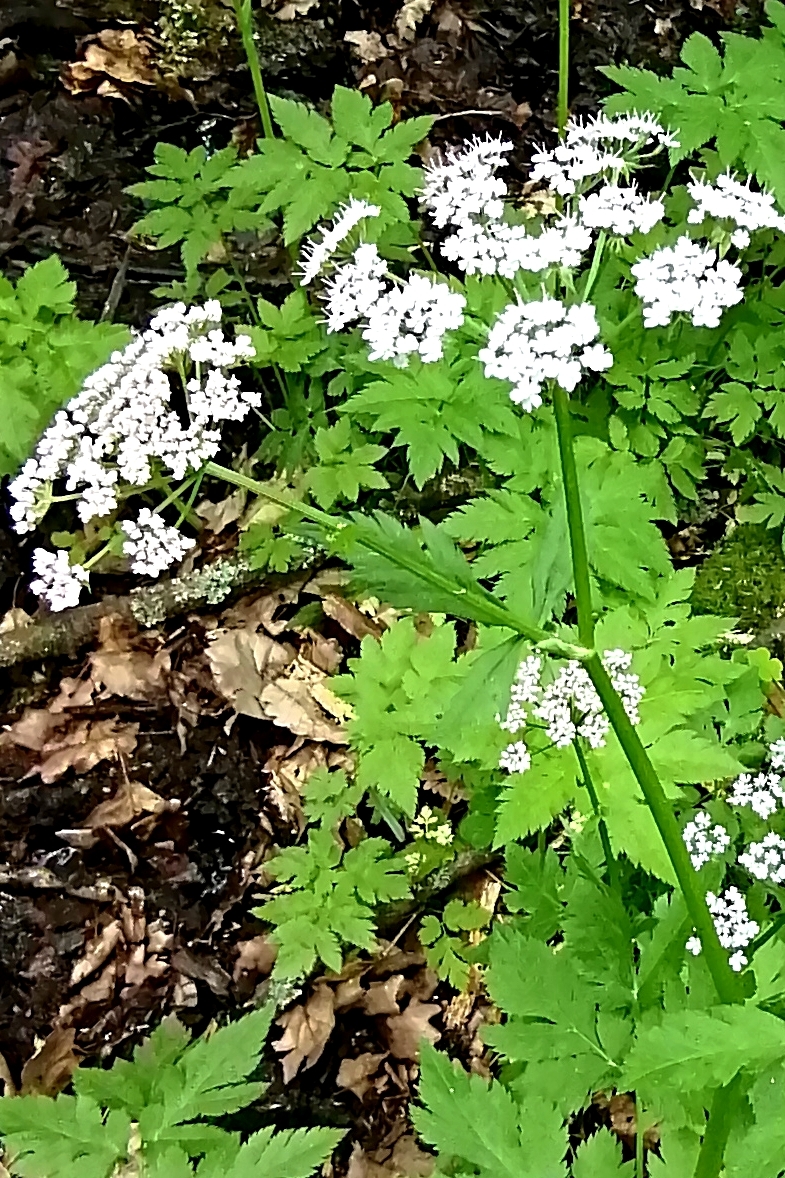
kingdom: Plantae
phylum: Tracheophyta
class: Magnoliopsida
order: Apiales
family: Apiaceae
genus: Chaerophyllum
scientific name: Chaerophyllum hirsutum
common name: Hairy chervil
